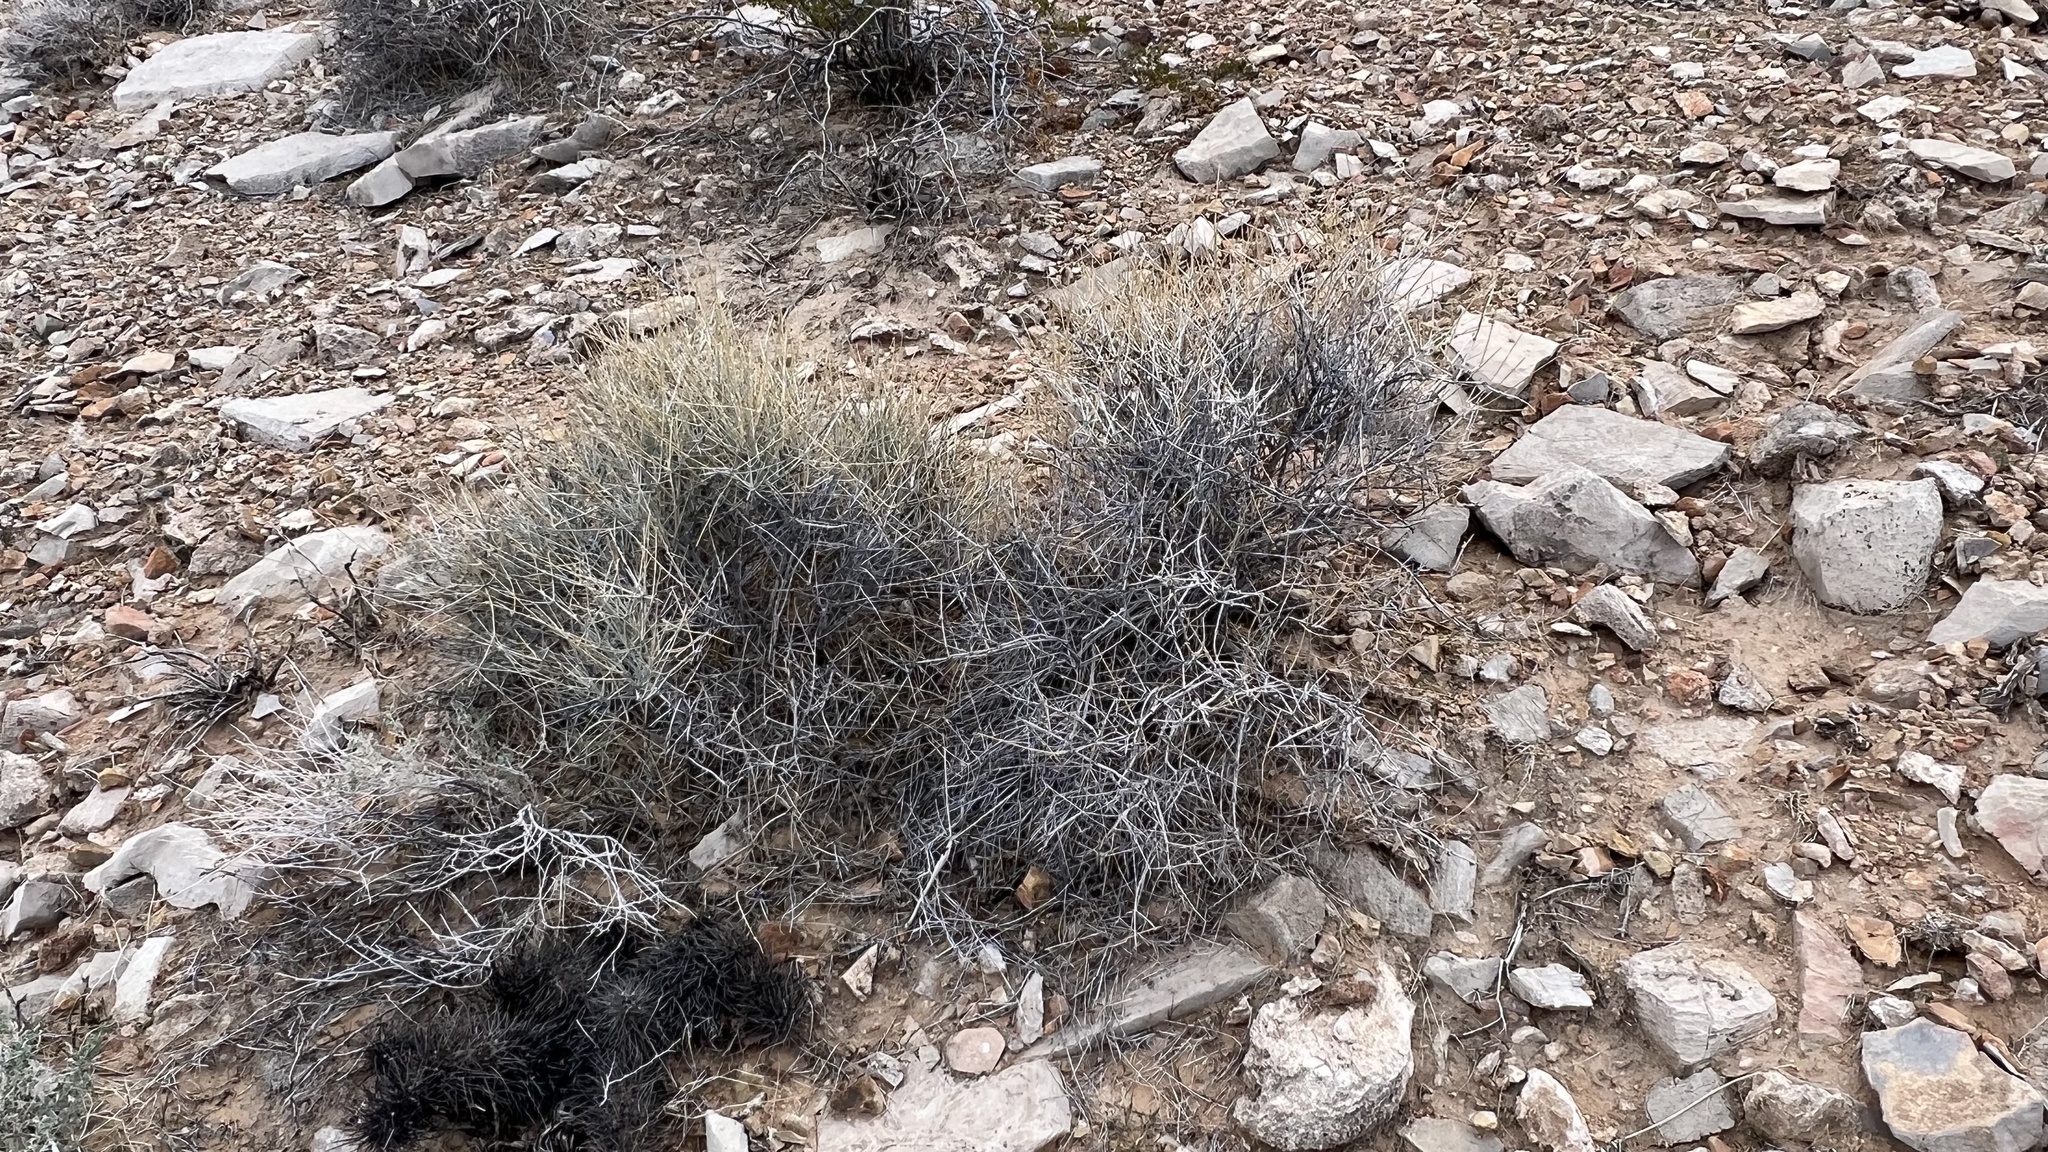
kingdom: Plantae
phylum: Tracheophyta
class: Gnetopsida
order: Ephedrales
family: Ephedraceae
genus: Ephedra
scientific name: Ephedra nevadensis
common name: Gray ephedra
